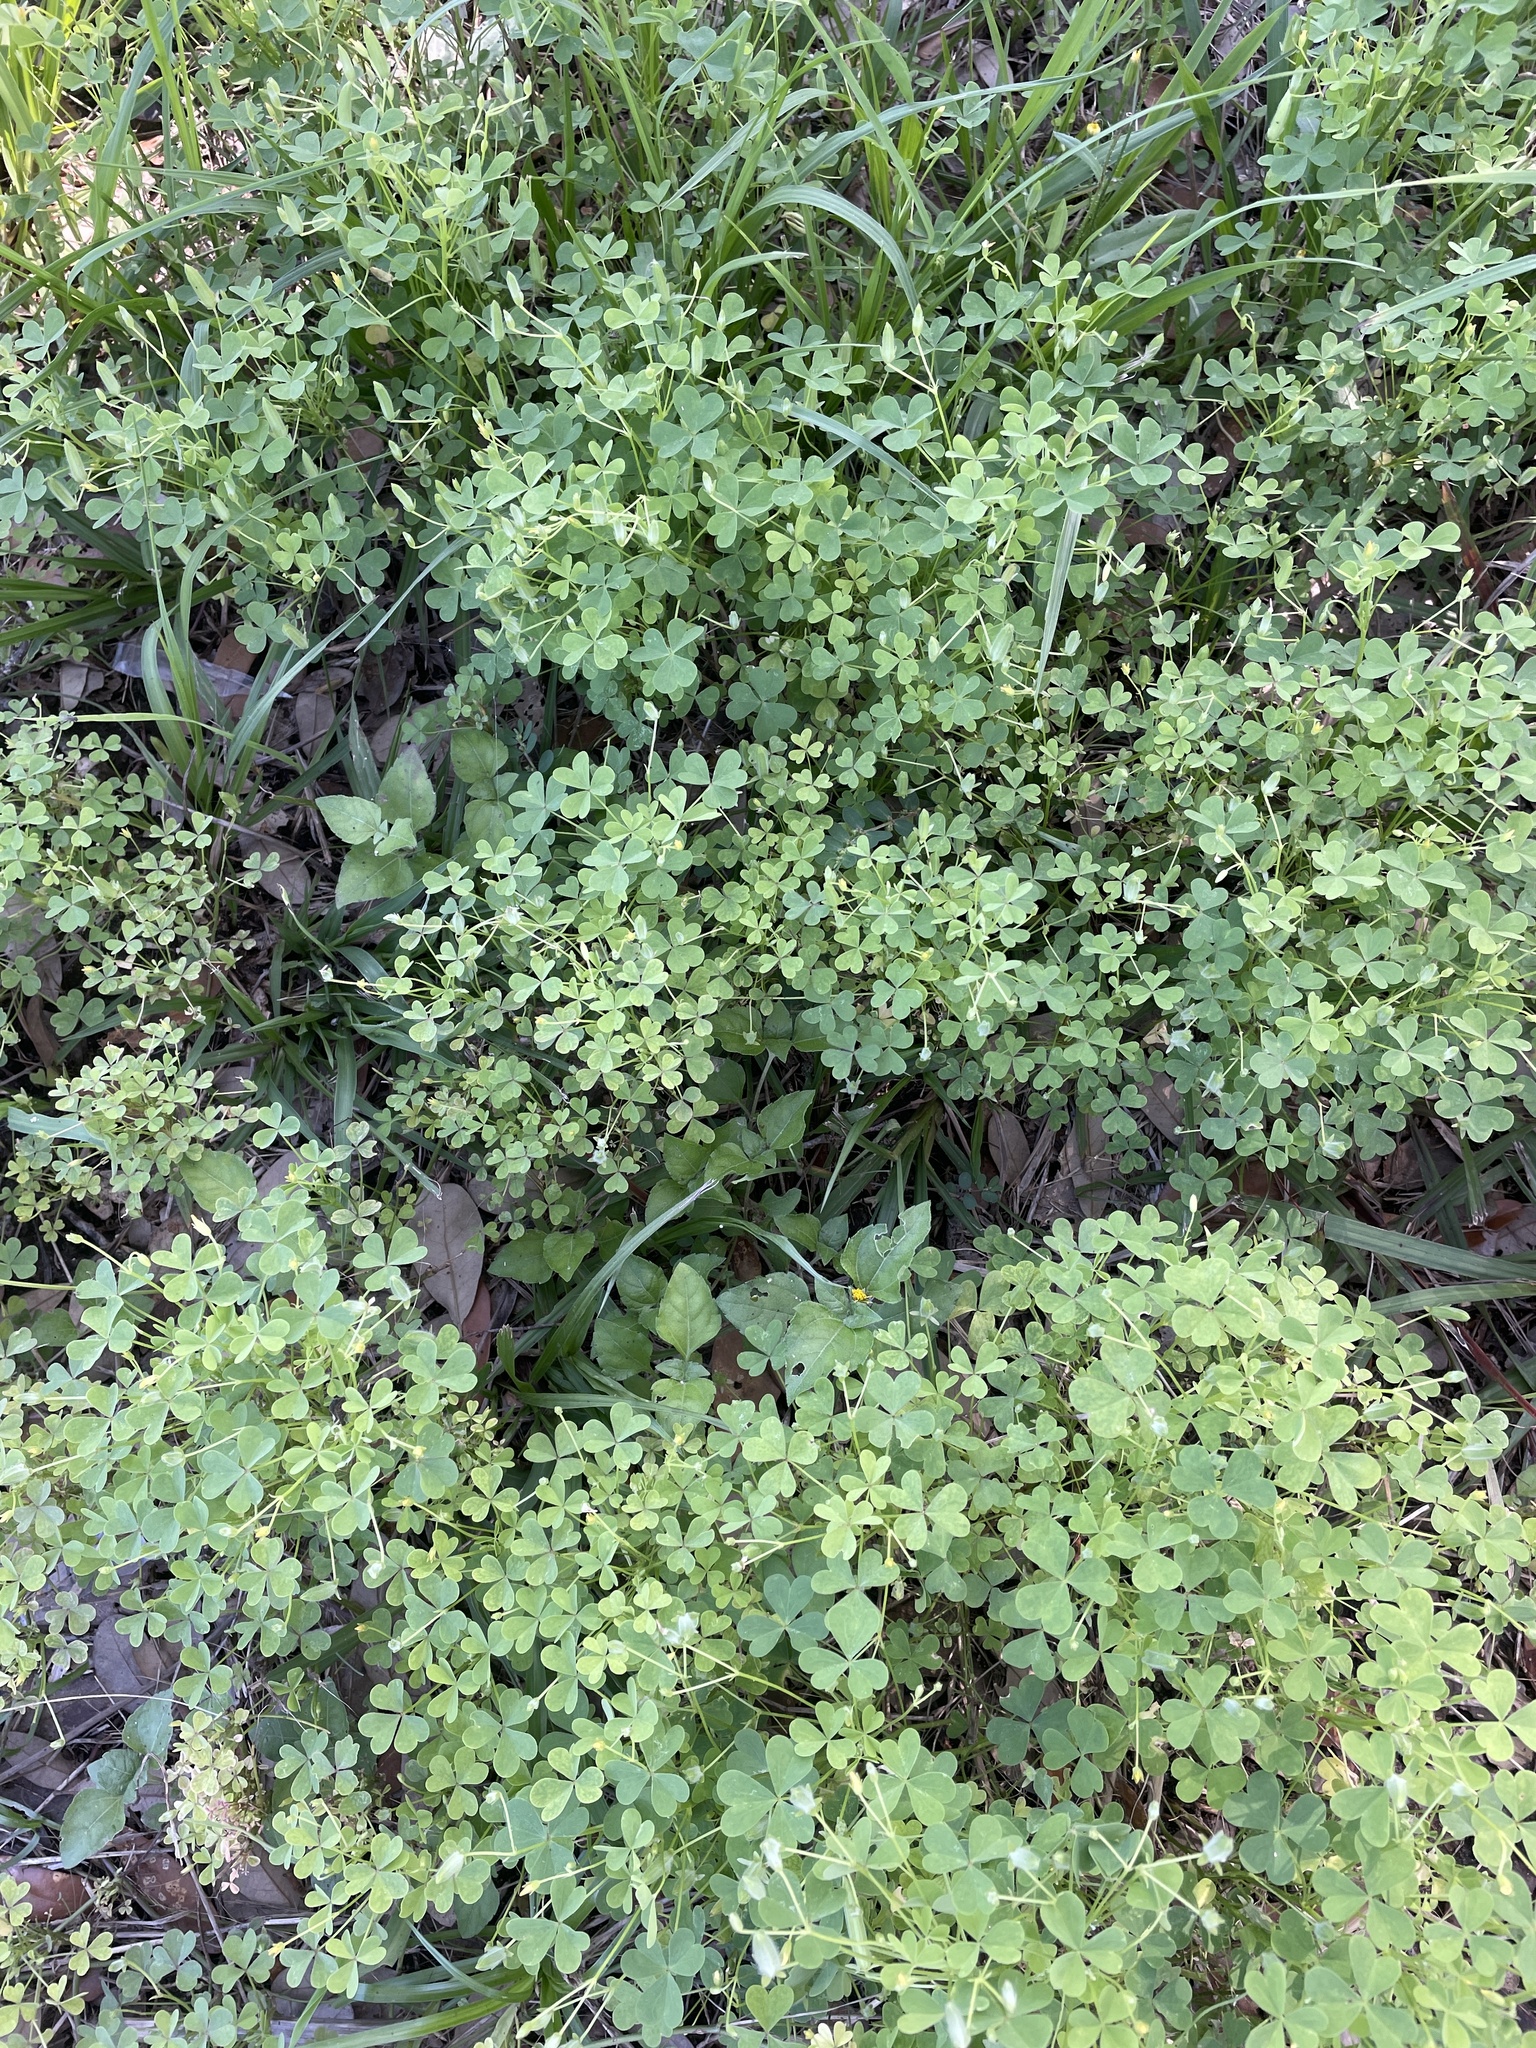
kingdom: Plantae
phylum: Tracheophyta
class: Magnoliopsida
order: Oxalidales
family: Oxalidaceae
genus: Oxalis
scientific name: Oxalis dillenii
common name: Sussex yellow-sorrel
